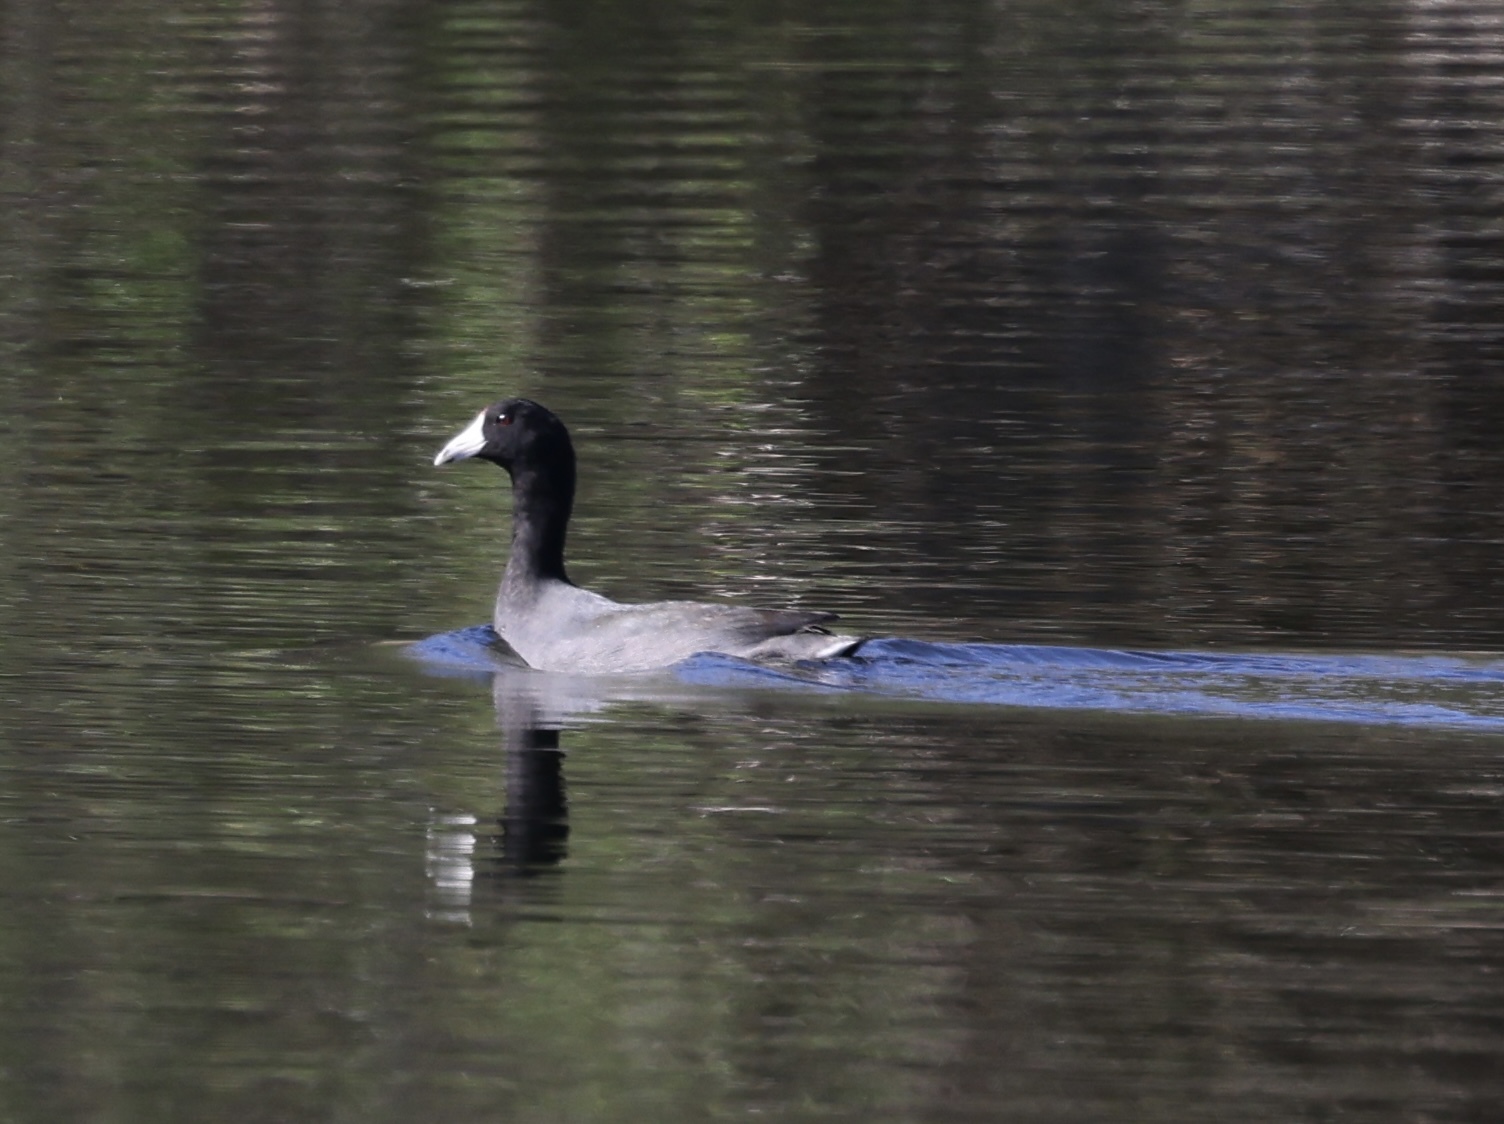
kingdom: Animalia
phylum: Chordata
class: Aves
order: Gruiformes
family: Rallidae
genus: Fulica
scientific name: Fulica americana
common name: American coot
